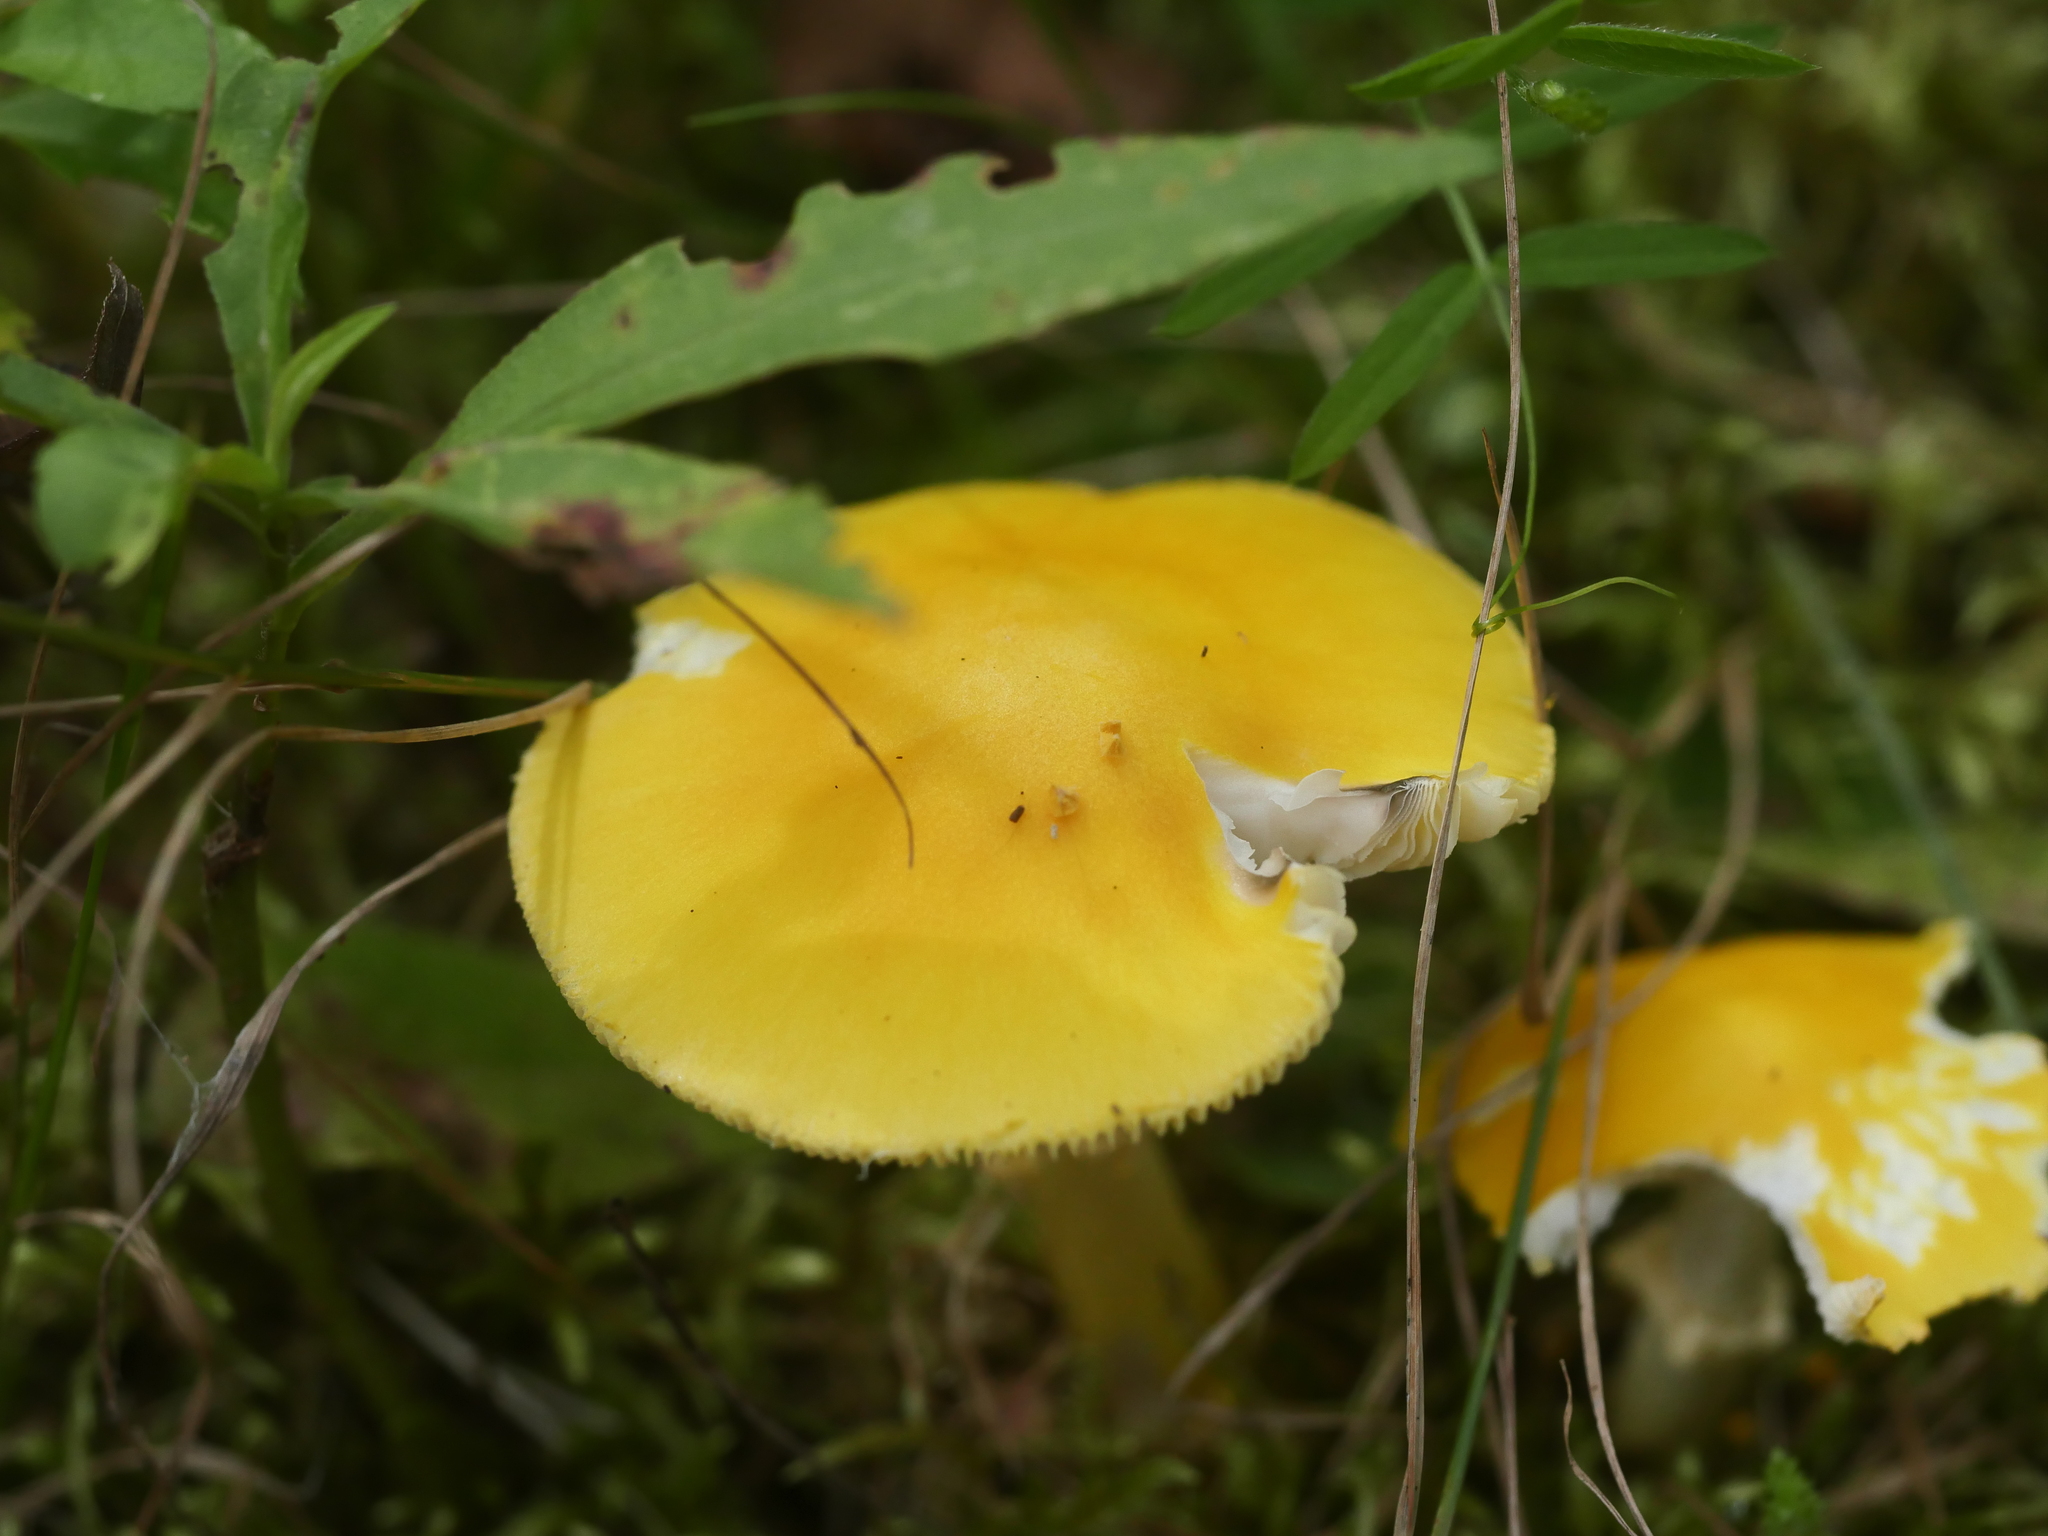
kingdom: Fungi
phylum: Basidiomycota
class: Agaricomycetes
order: Agaricales
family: Amanitaceae
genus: Amanita
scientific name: Amanita flavoconia
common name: Yellow patches
